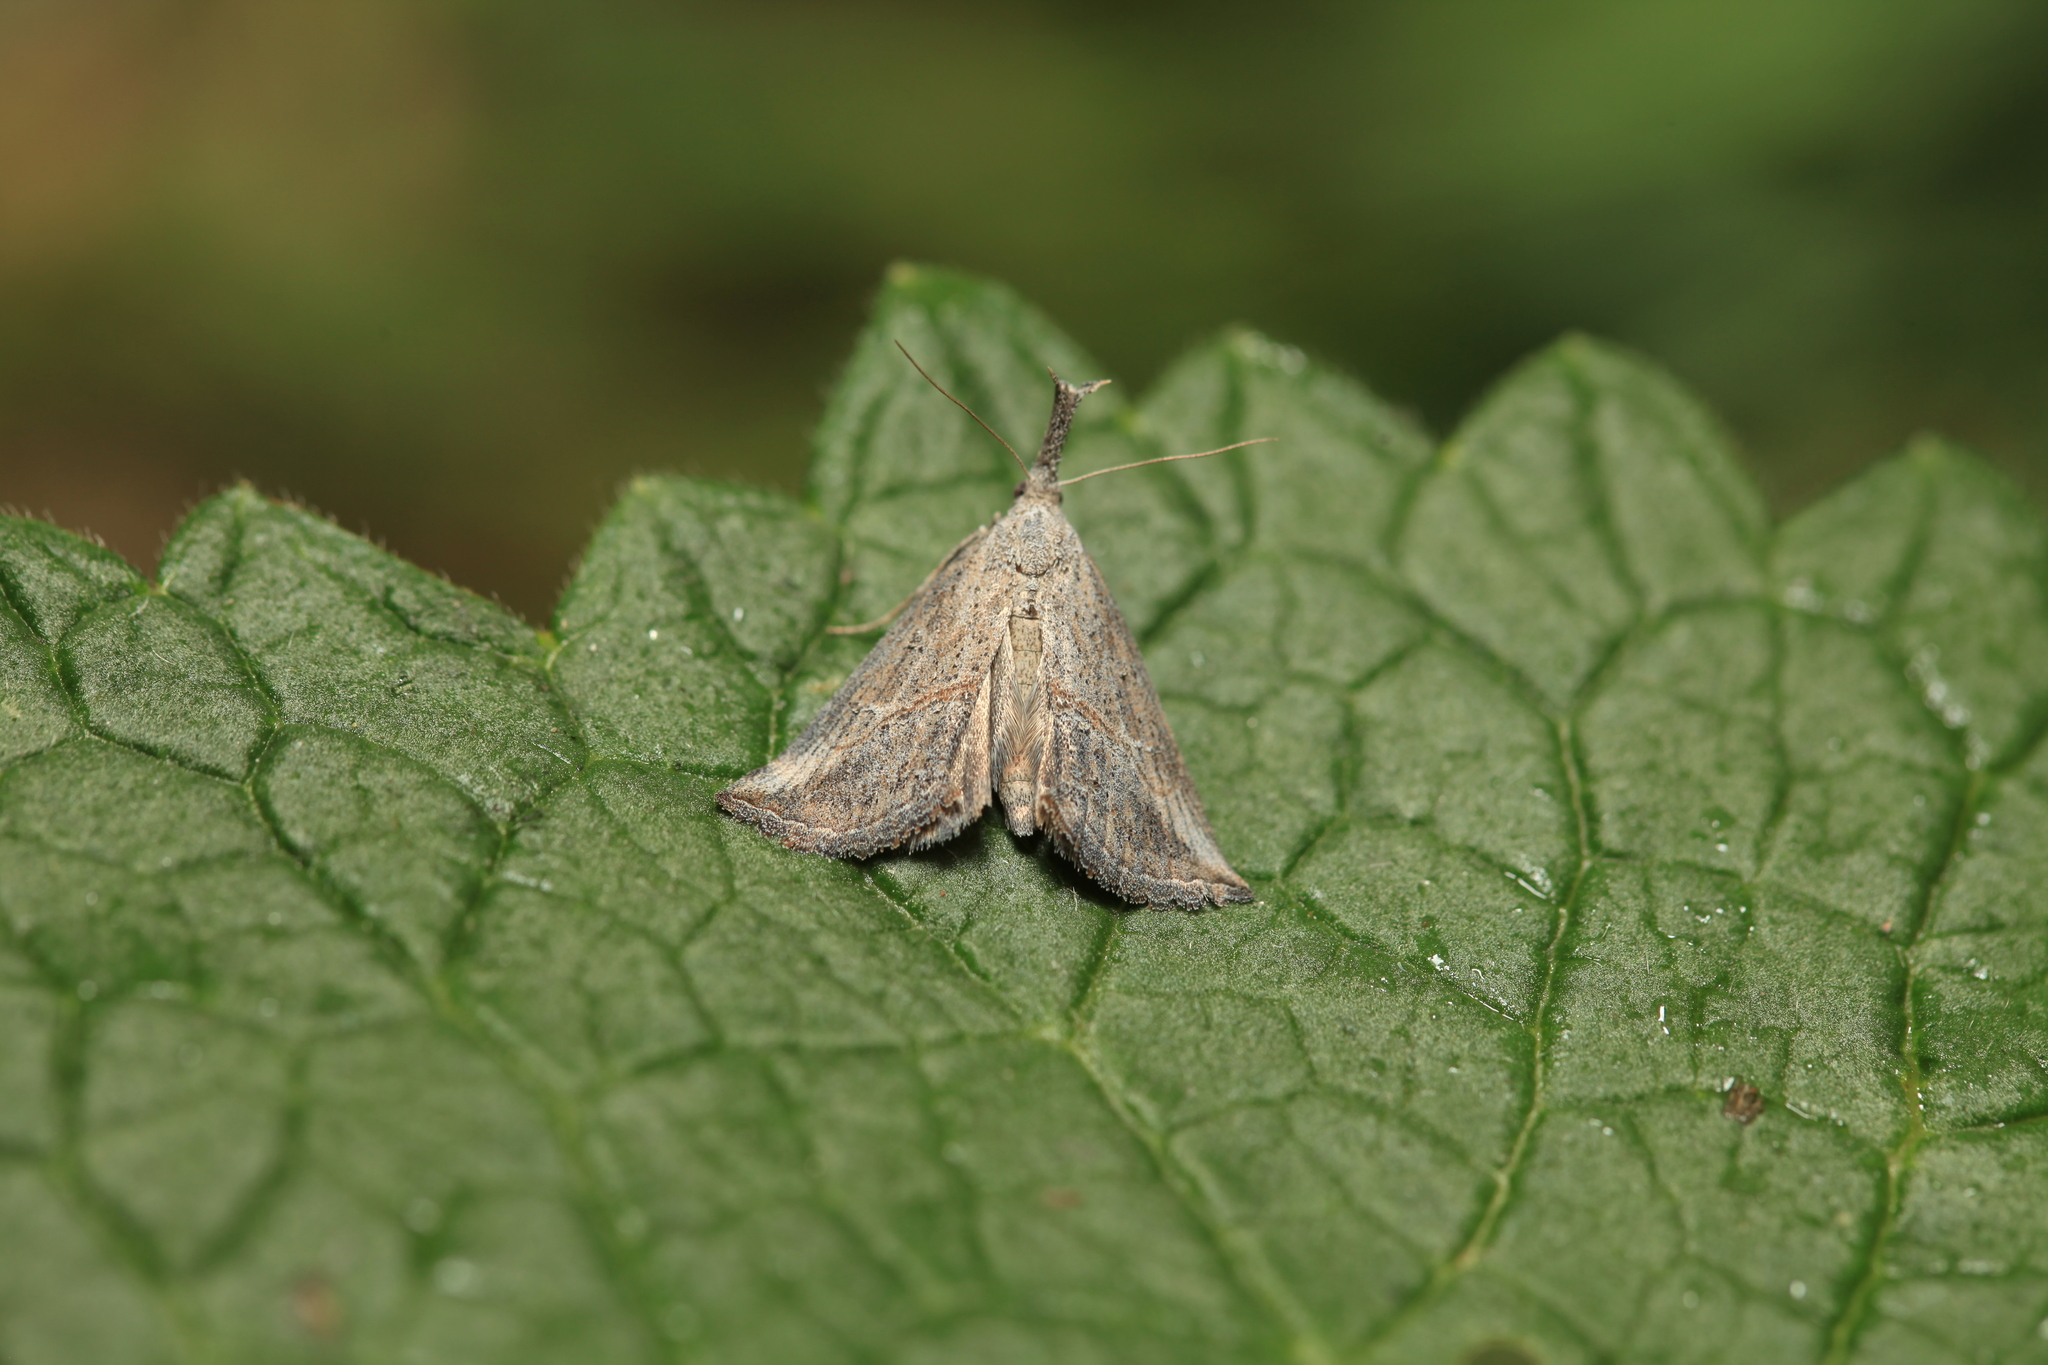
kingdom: Animalia
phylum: Arthropoda
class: Insecta
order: Lepidoptera
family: Erebidae
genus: Zekelita
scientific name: Zekelita ravulalis
